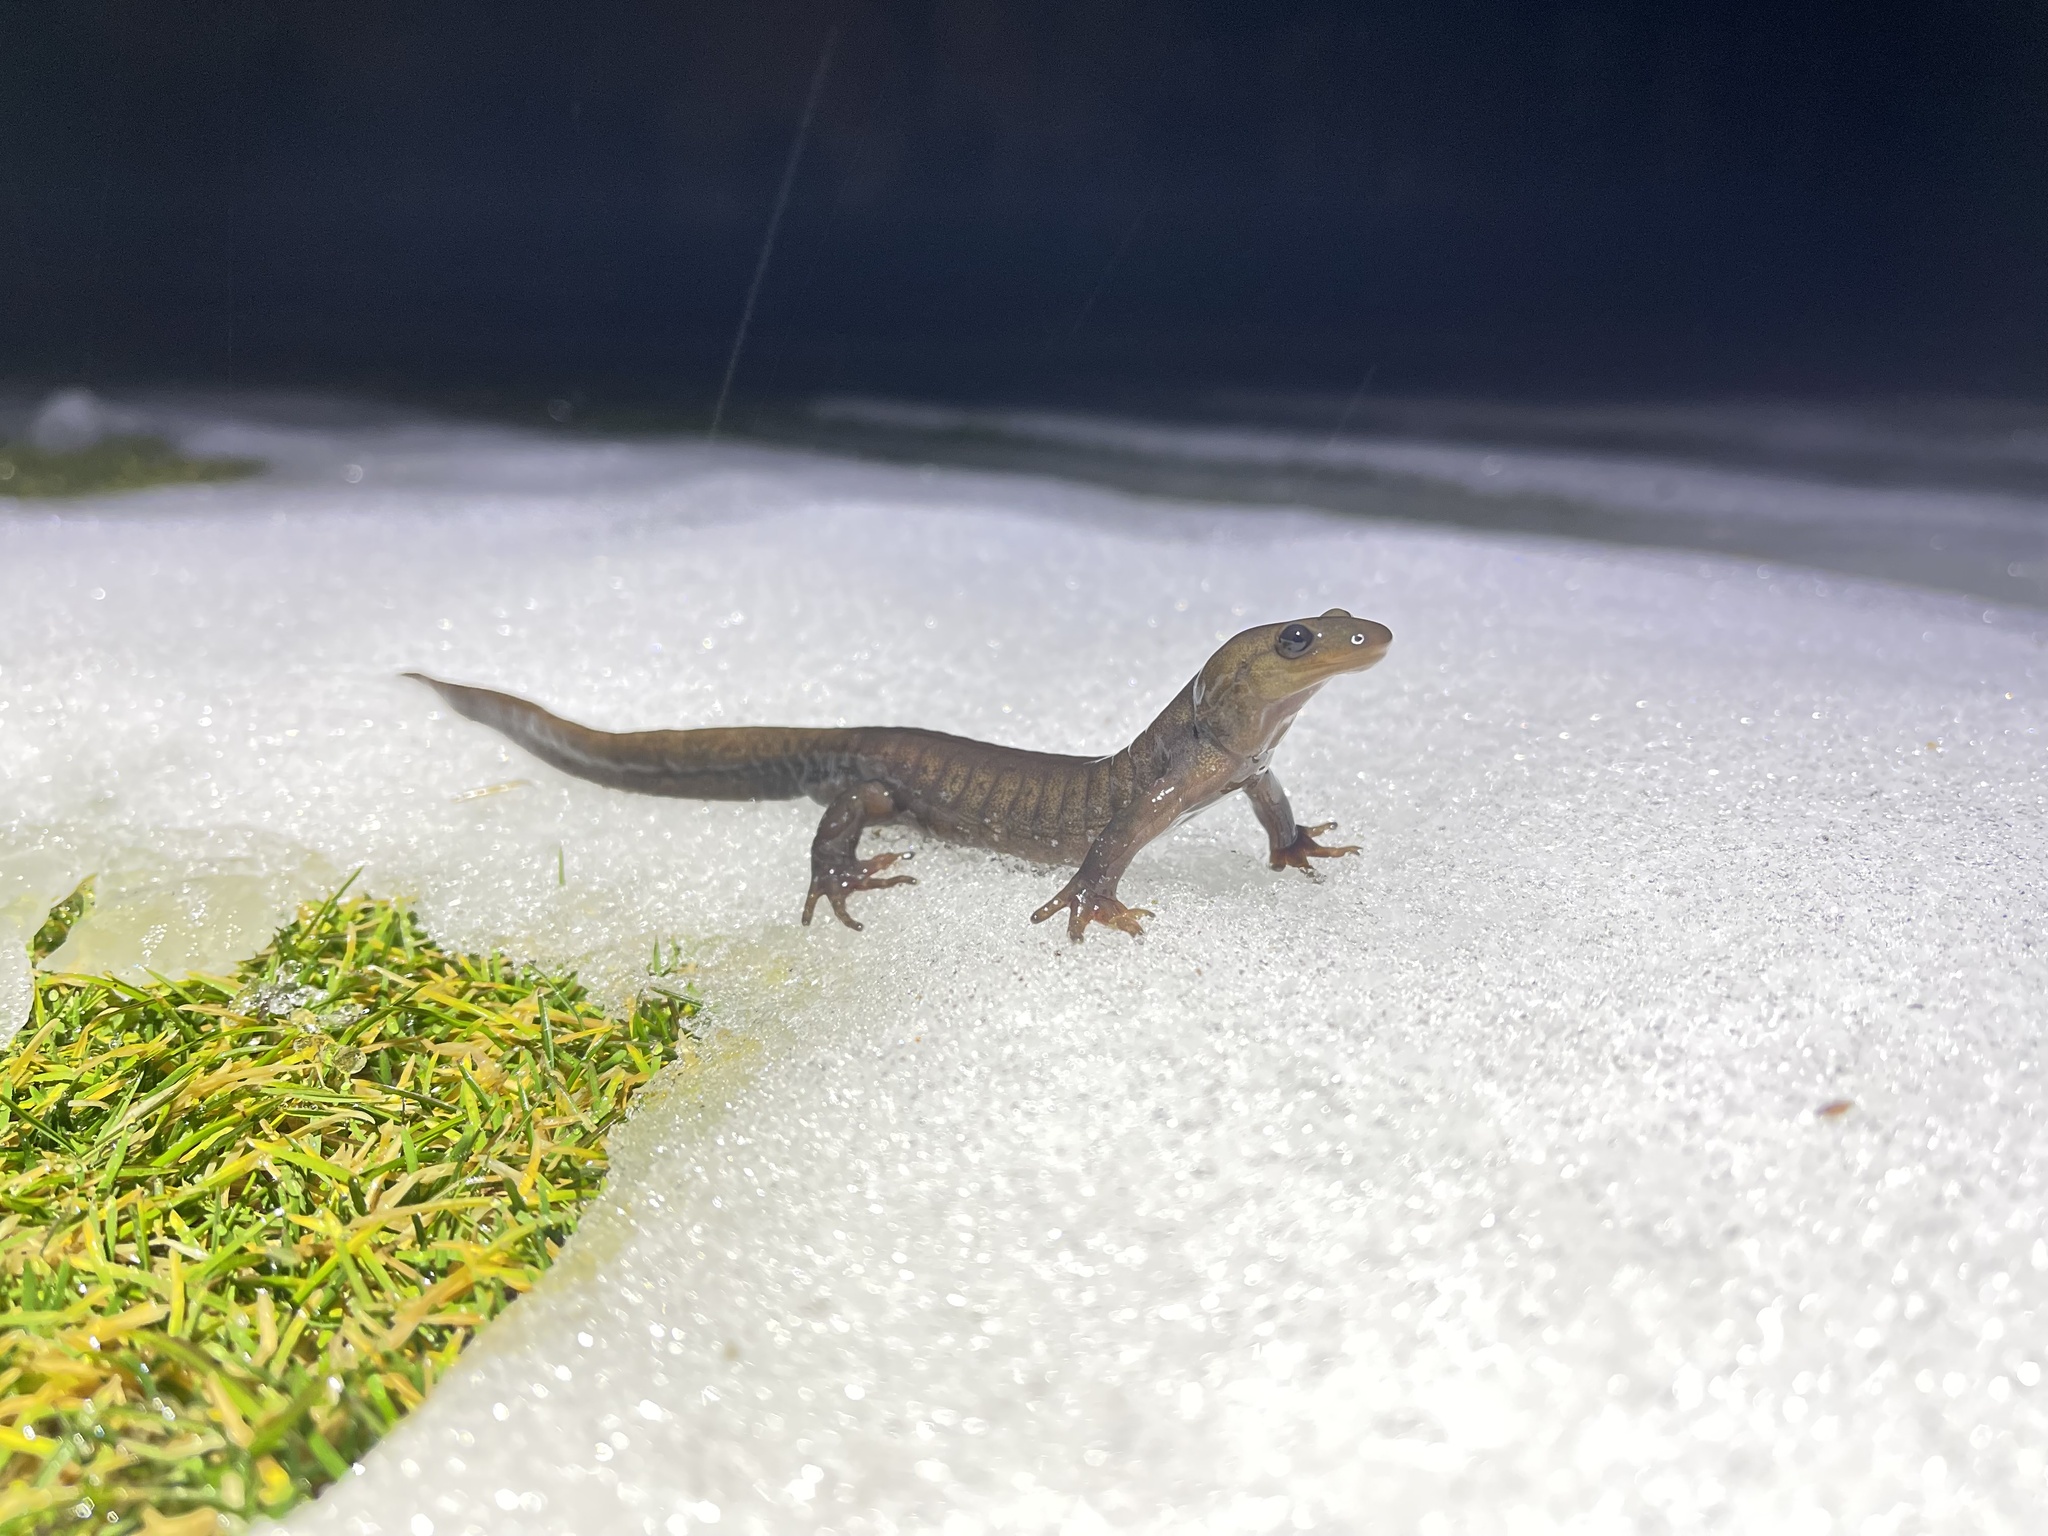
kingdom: Animalia
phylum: Chordata
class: Amphibia
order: Caudata
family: Ambystomatidae
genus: Ambystoma
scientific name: Ambystoma jeffersonianum
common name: Jefferson salamander
